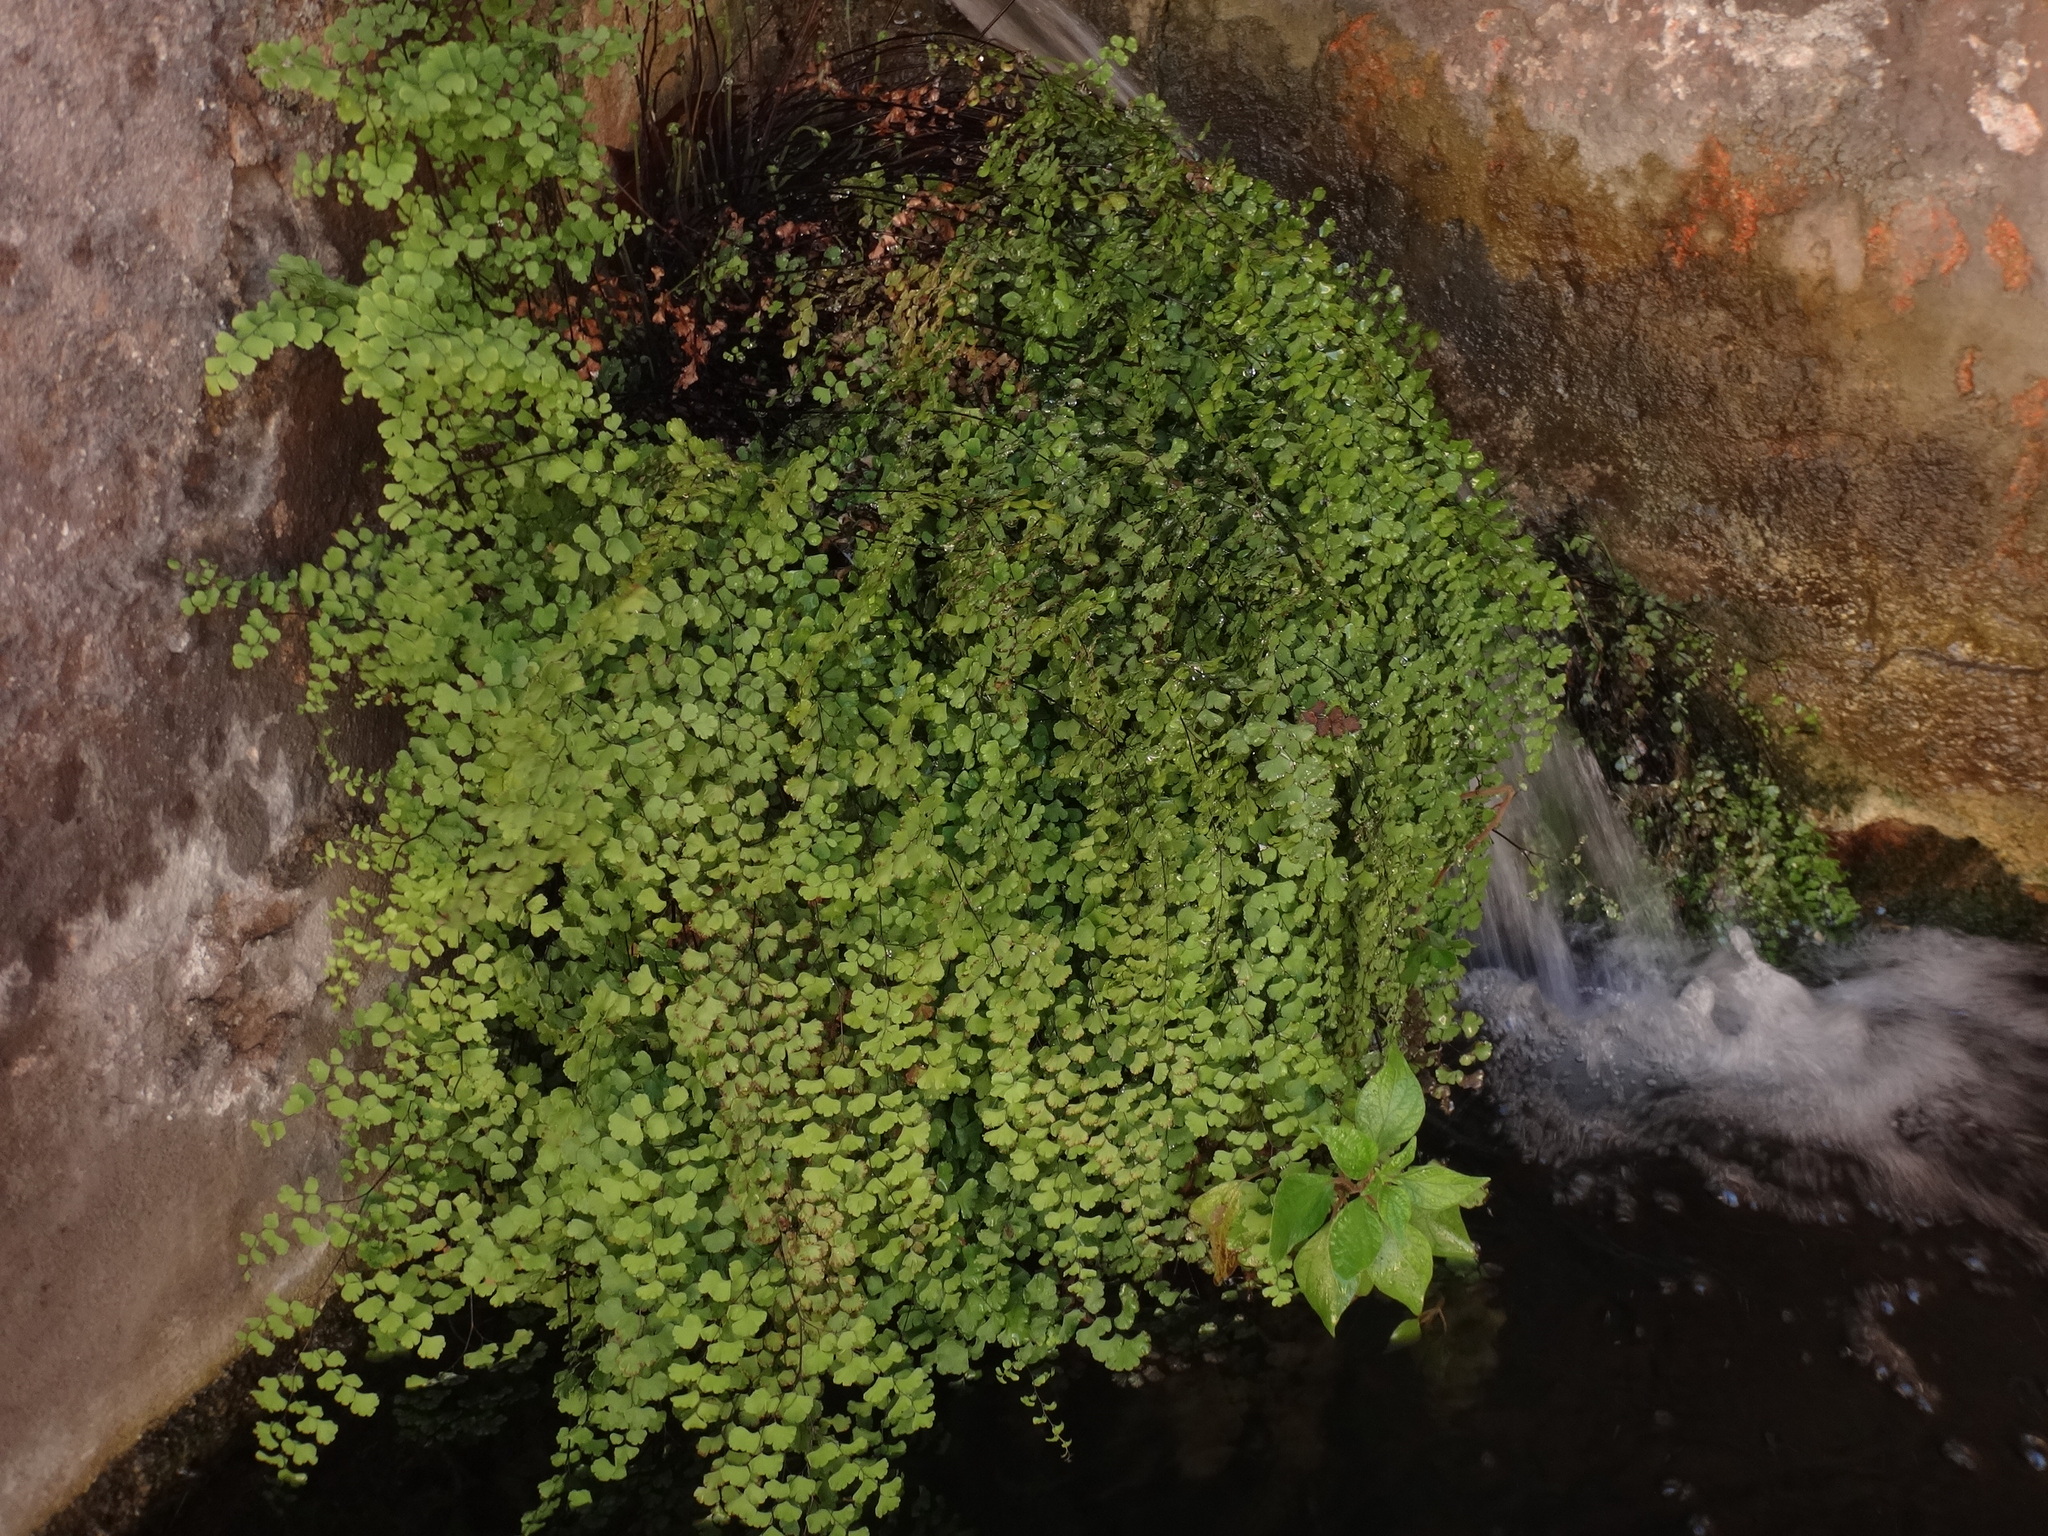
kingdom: Plantae
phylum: Tracheophyta
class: Polypodiopsida
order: Polypodiales
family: Pteridaceae
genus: Adiantum
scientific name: Adiantum capillus-veneris
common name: Maidenhair fern
